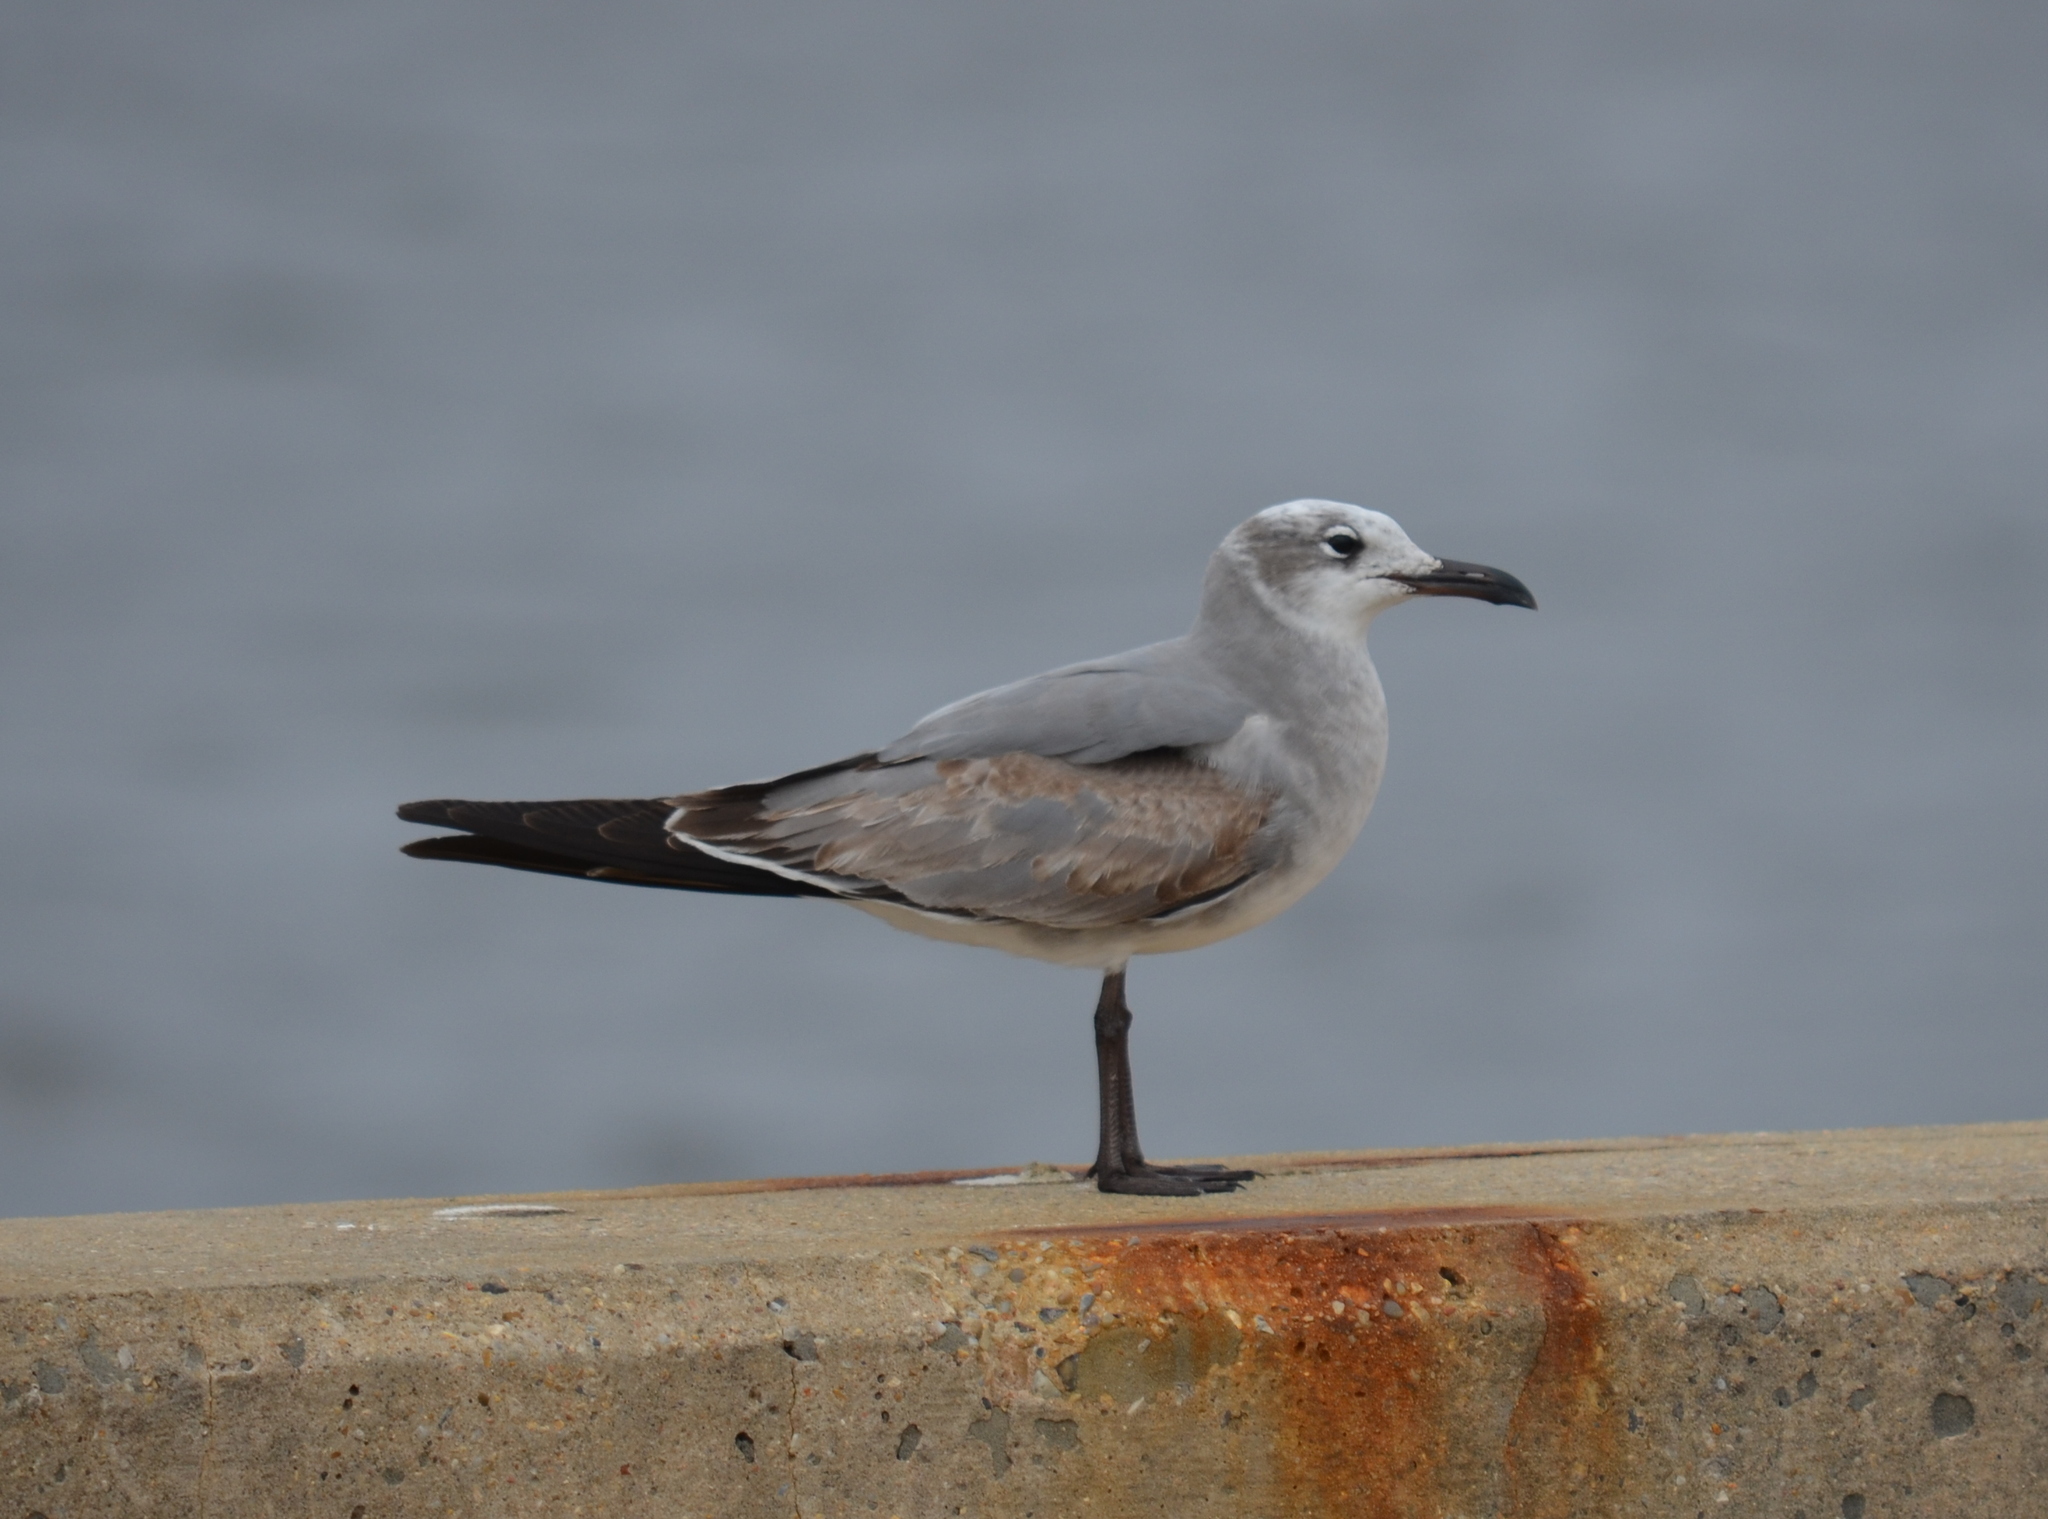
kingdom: Animalia
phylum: Chordata
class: Aves
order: Charadriiformes
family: Laridae
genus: Leucophaeus
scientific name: Leucophaeus atricilla
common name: Laughing gull
